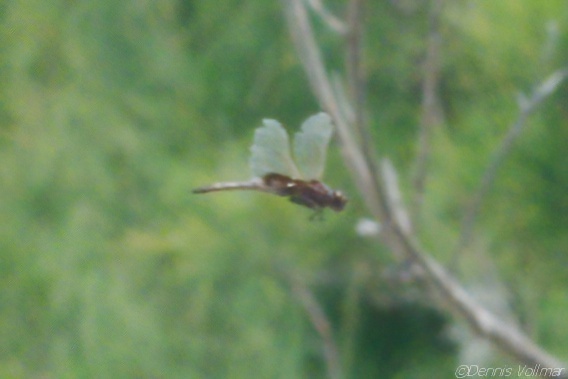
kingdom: Animalia
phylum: Arthropoda
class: Insecta
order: Odonata
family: Libellulidae
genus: Miathyria
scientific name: Miathyria marcella
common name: Hyacinth glider
